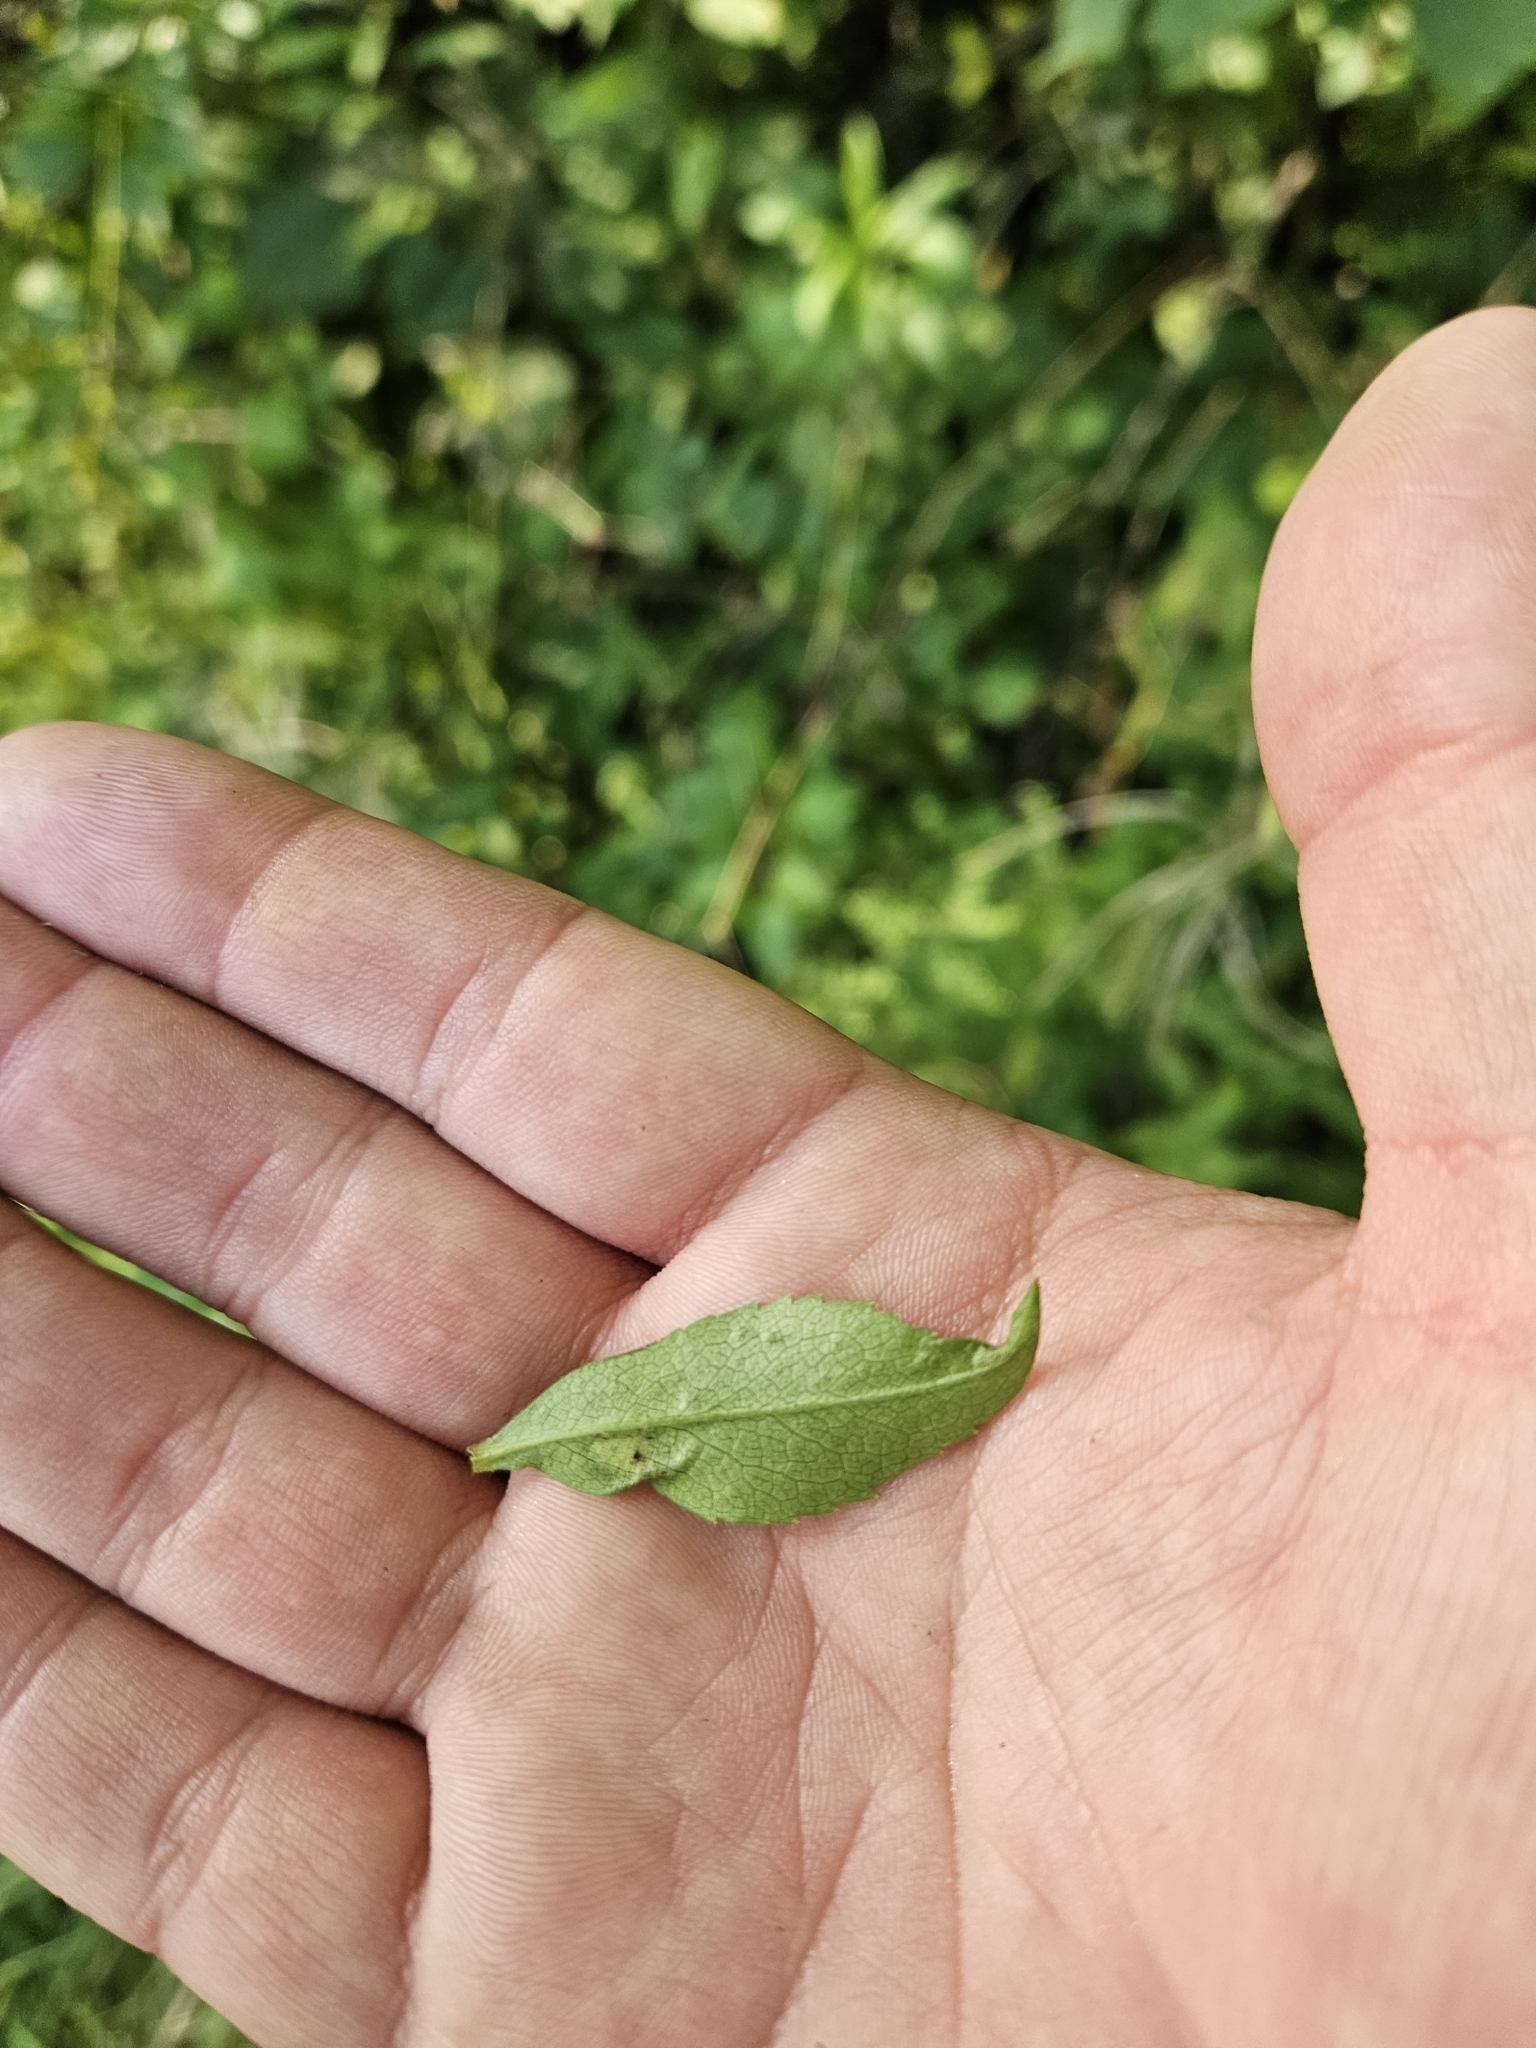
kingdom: Animalia
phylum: Arthropoda
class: Insecta
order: Diptera
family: Cecidomyiidae
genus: Asteromyia
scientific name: Asteromyia modesta
